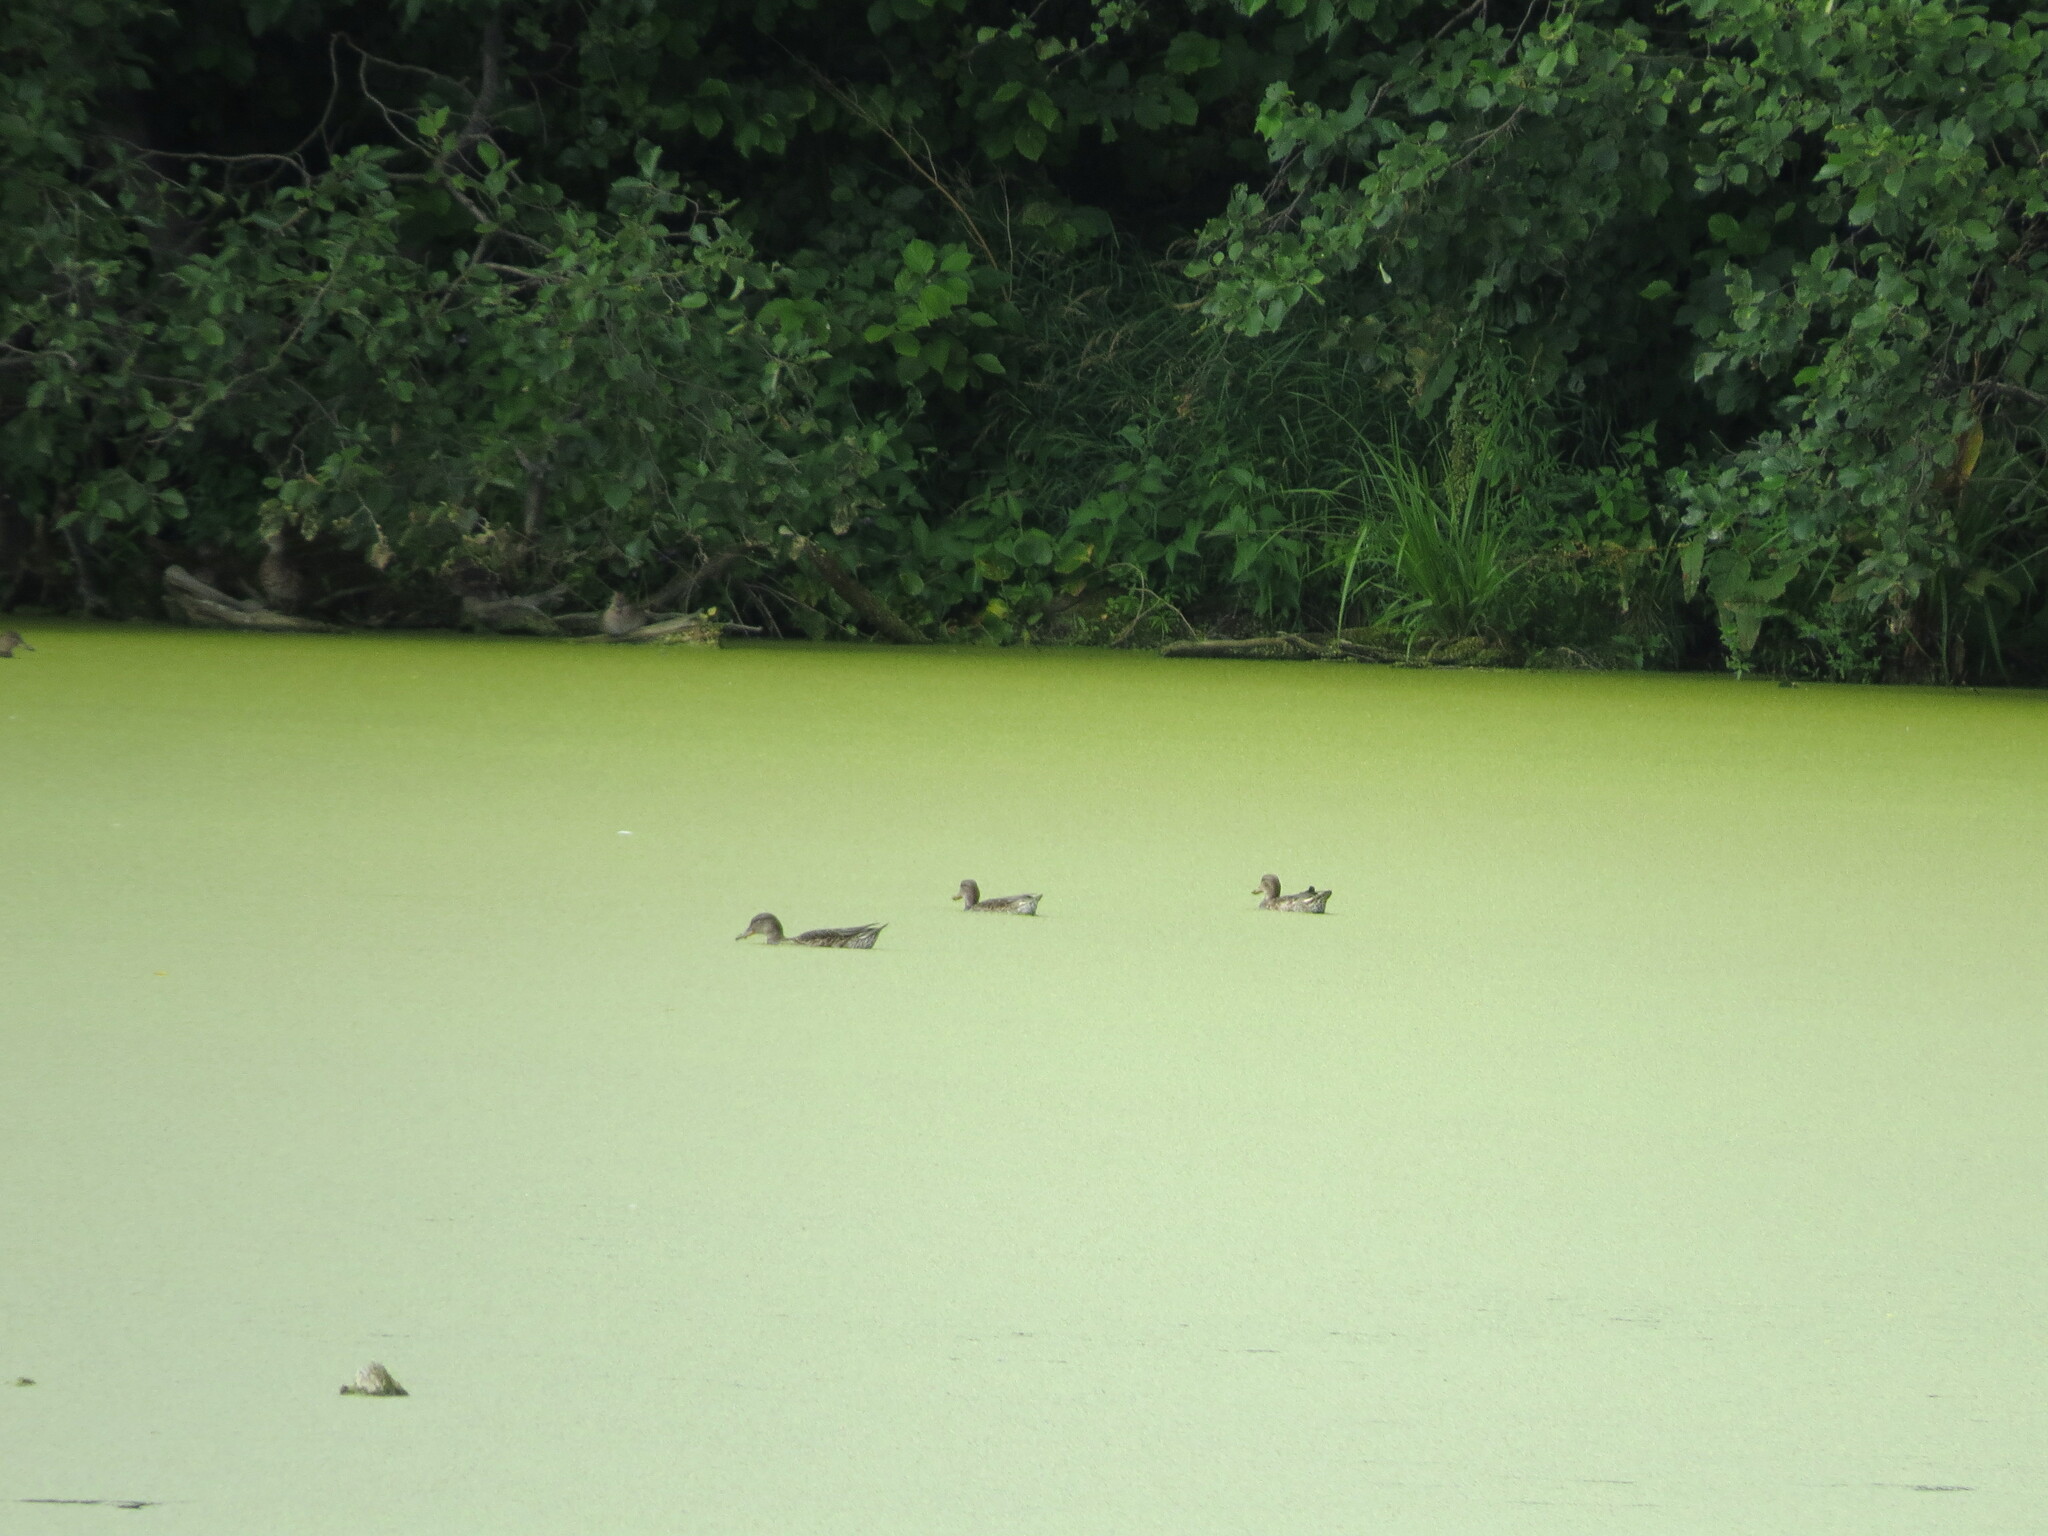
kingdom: Animalia
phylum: Chordata
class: Aves
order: Anseriformes
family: Anatidae
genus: Anas
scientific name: Anas crecca
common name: Eurasian teal
